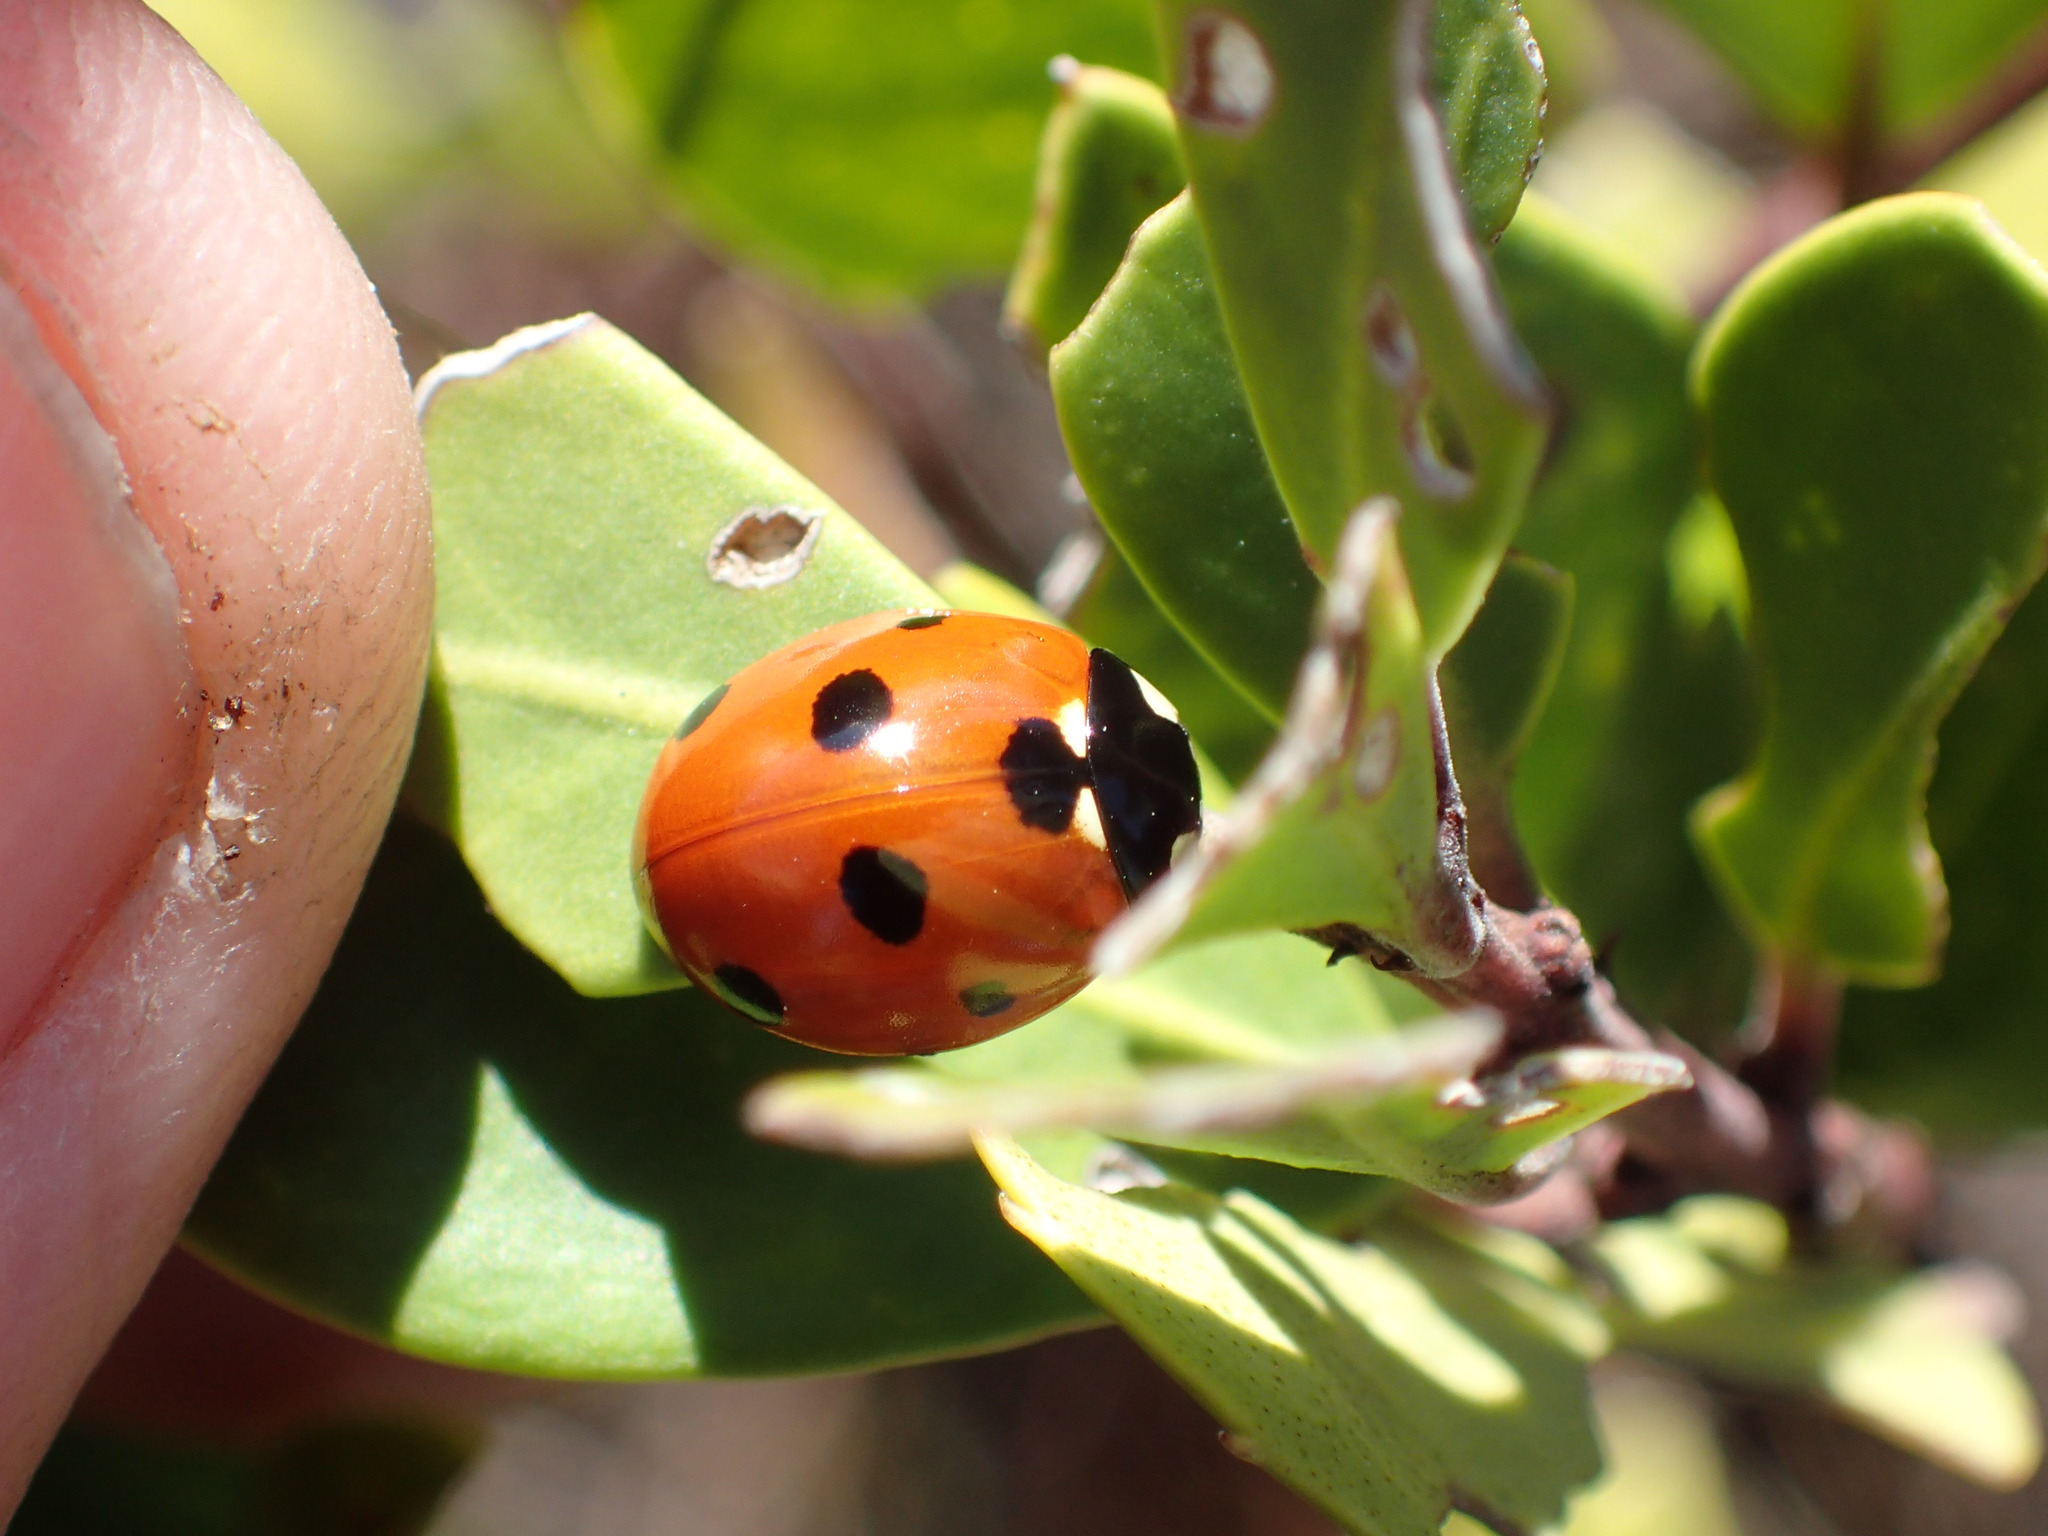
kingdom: Animalia
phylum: Arthropoda
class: Insecta
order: Coleoptera
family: Coccinellidae
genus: Coccinella
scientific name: Coccinella septempunctata
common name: Sevenspotted lady beetle
